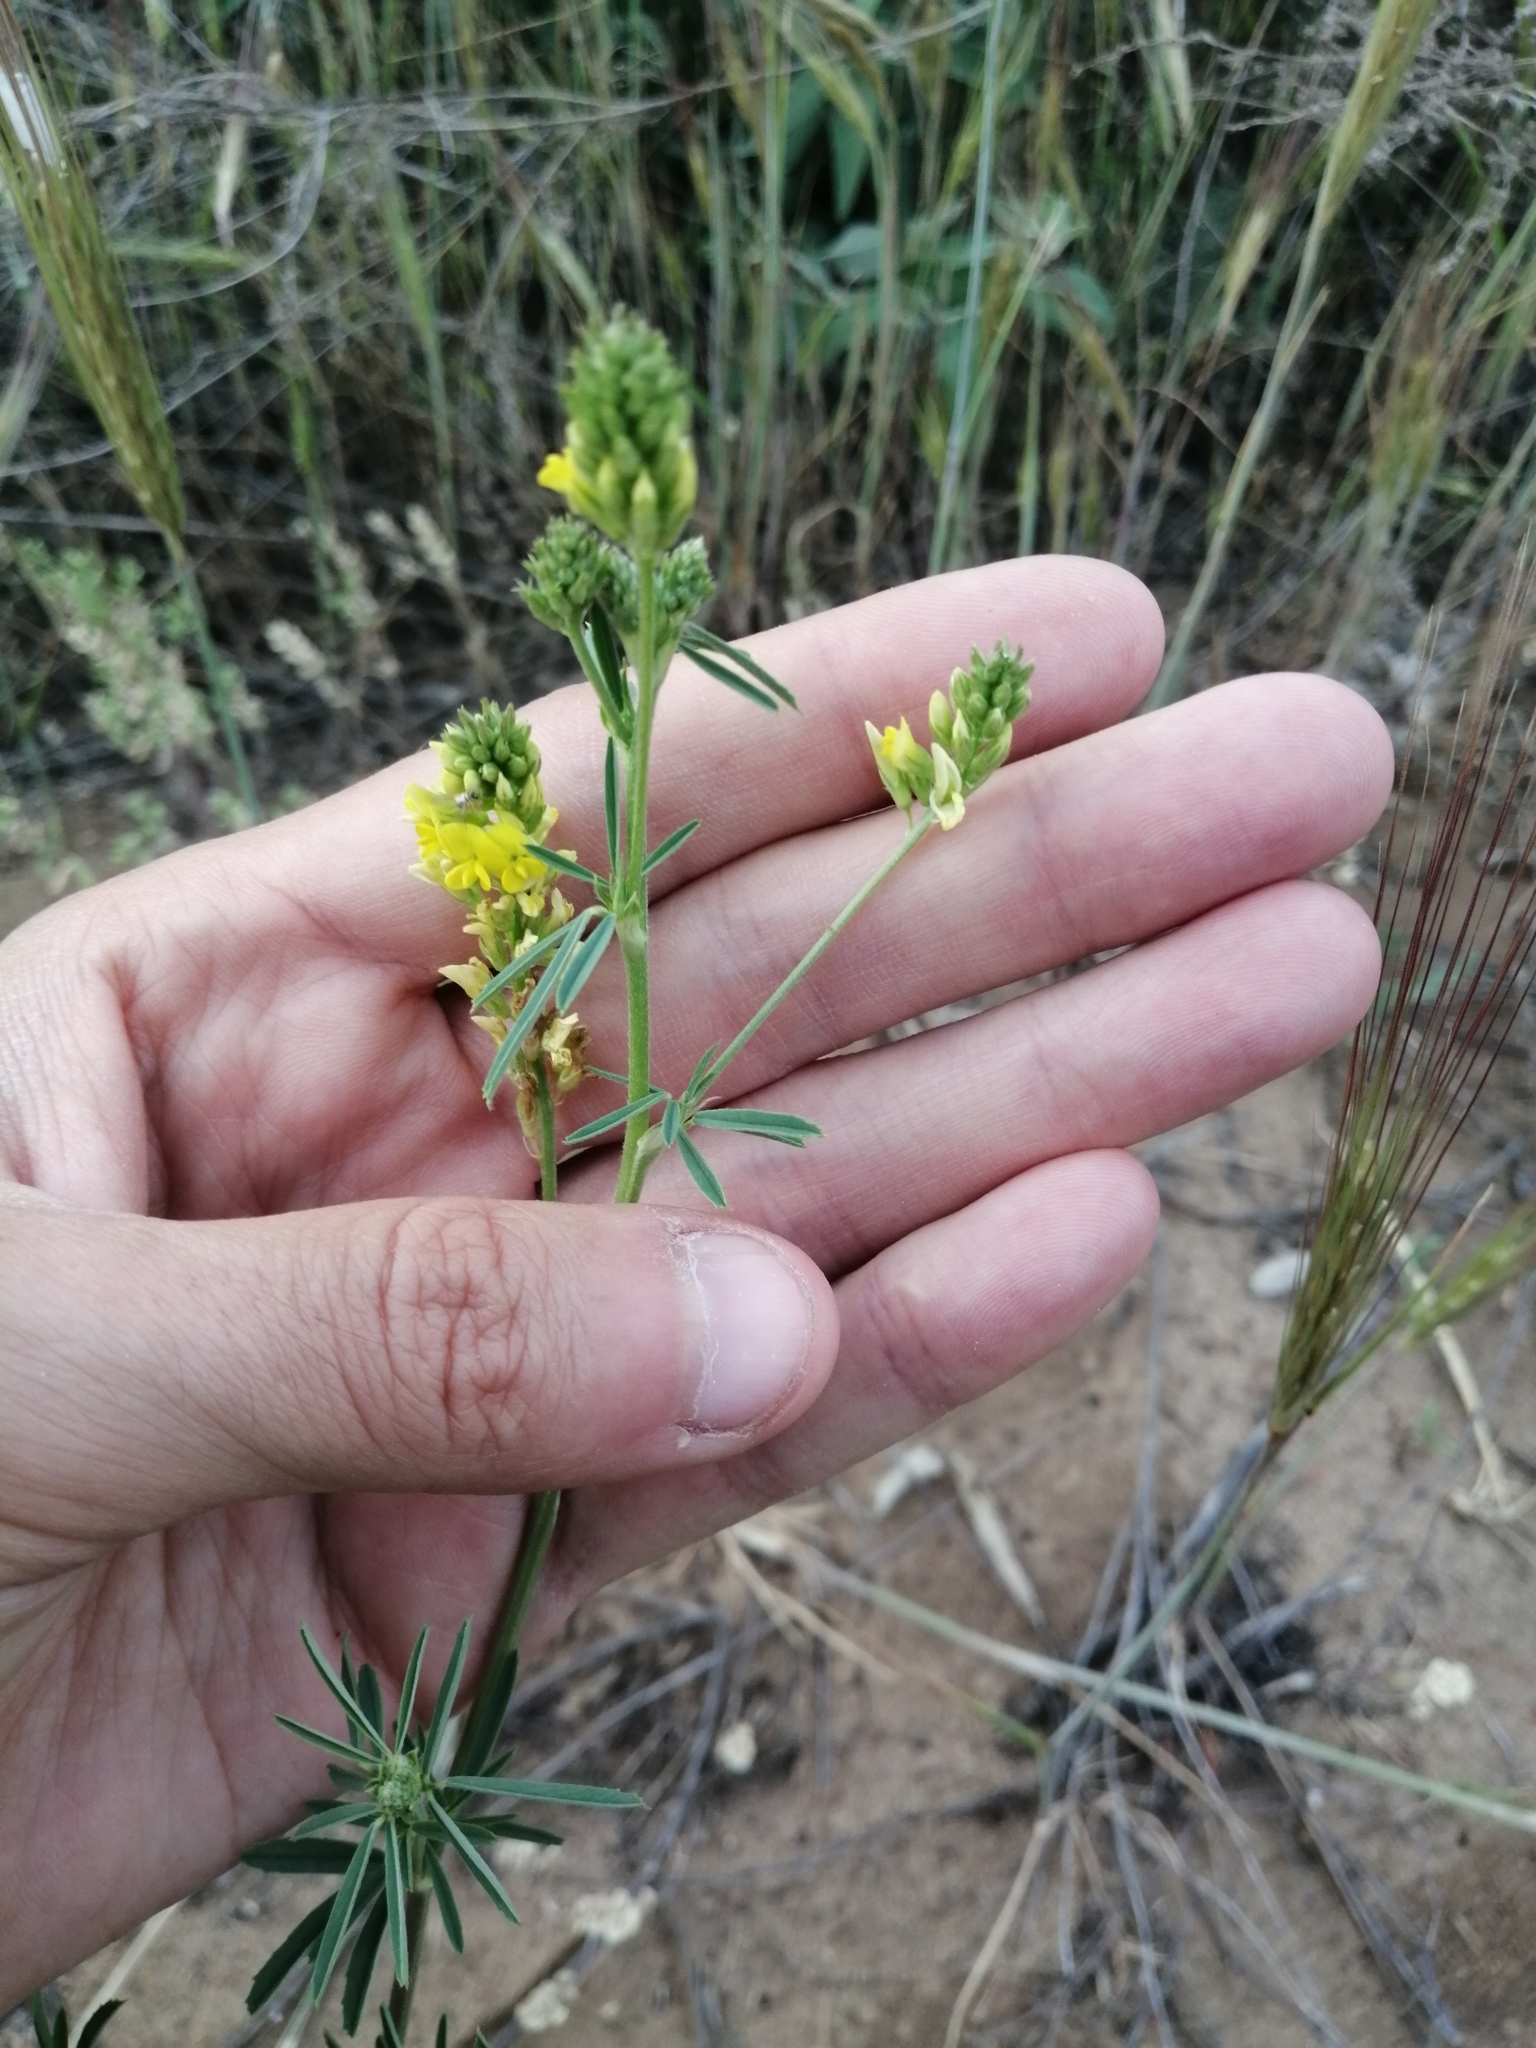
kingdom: Plantae
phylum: Tracheophyta
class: Magnoliopsida
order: Fabales
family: Fabaceae
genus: Medicago
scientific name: Medicago falcata
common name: Sickle medick
